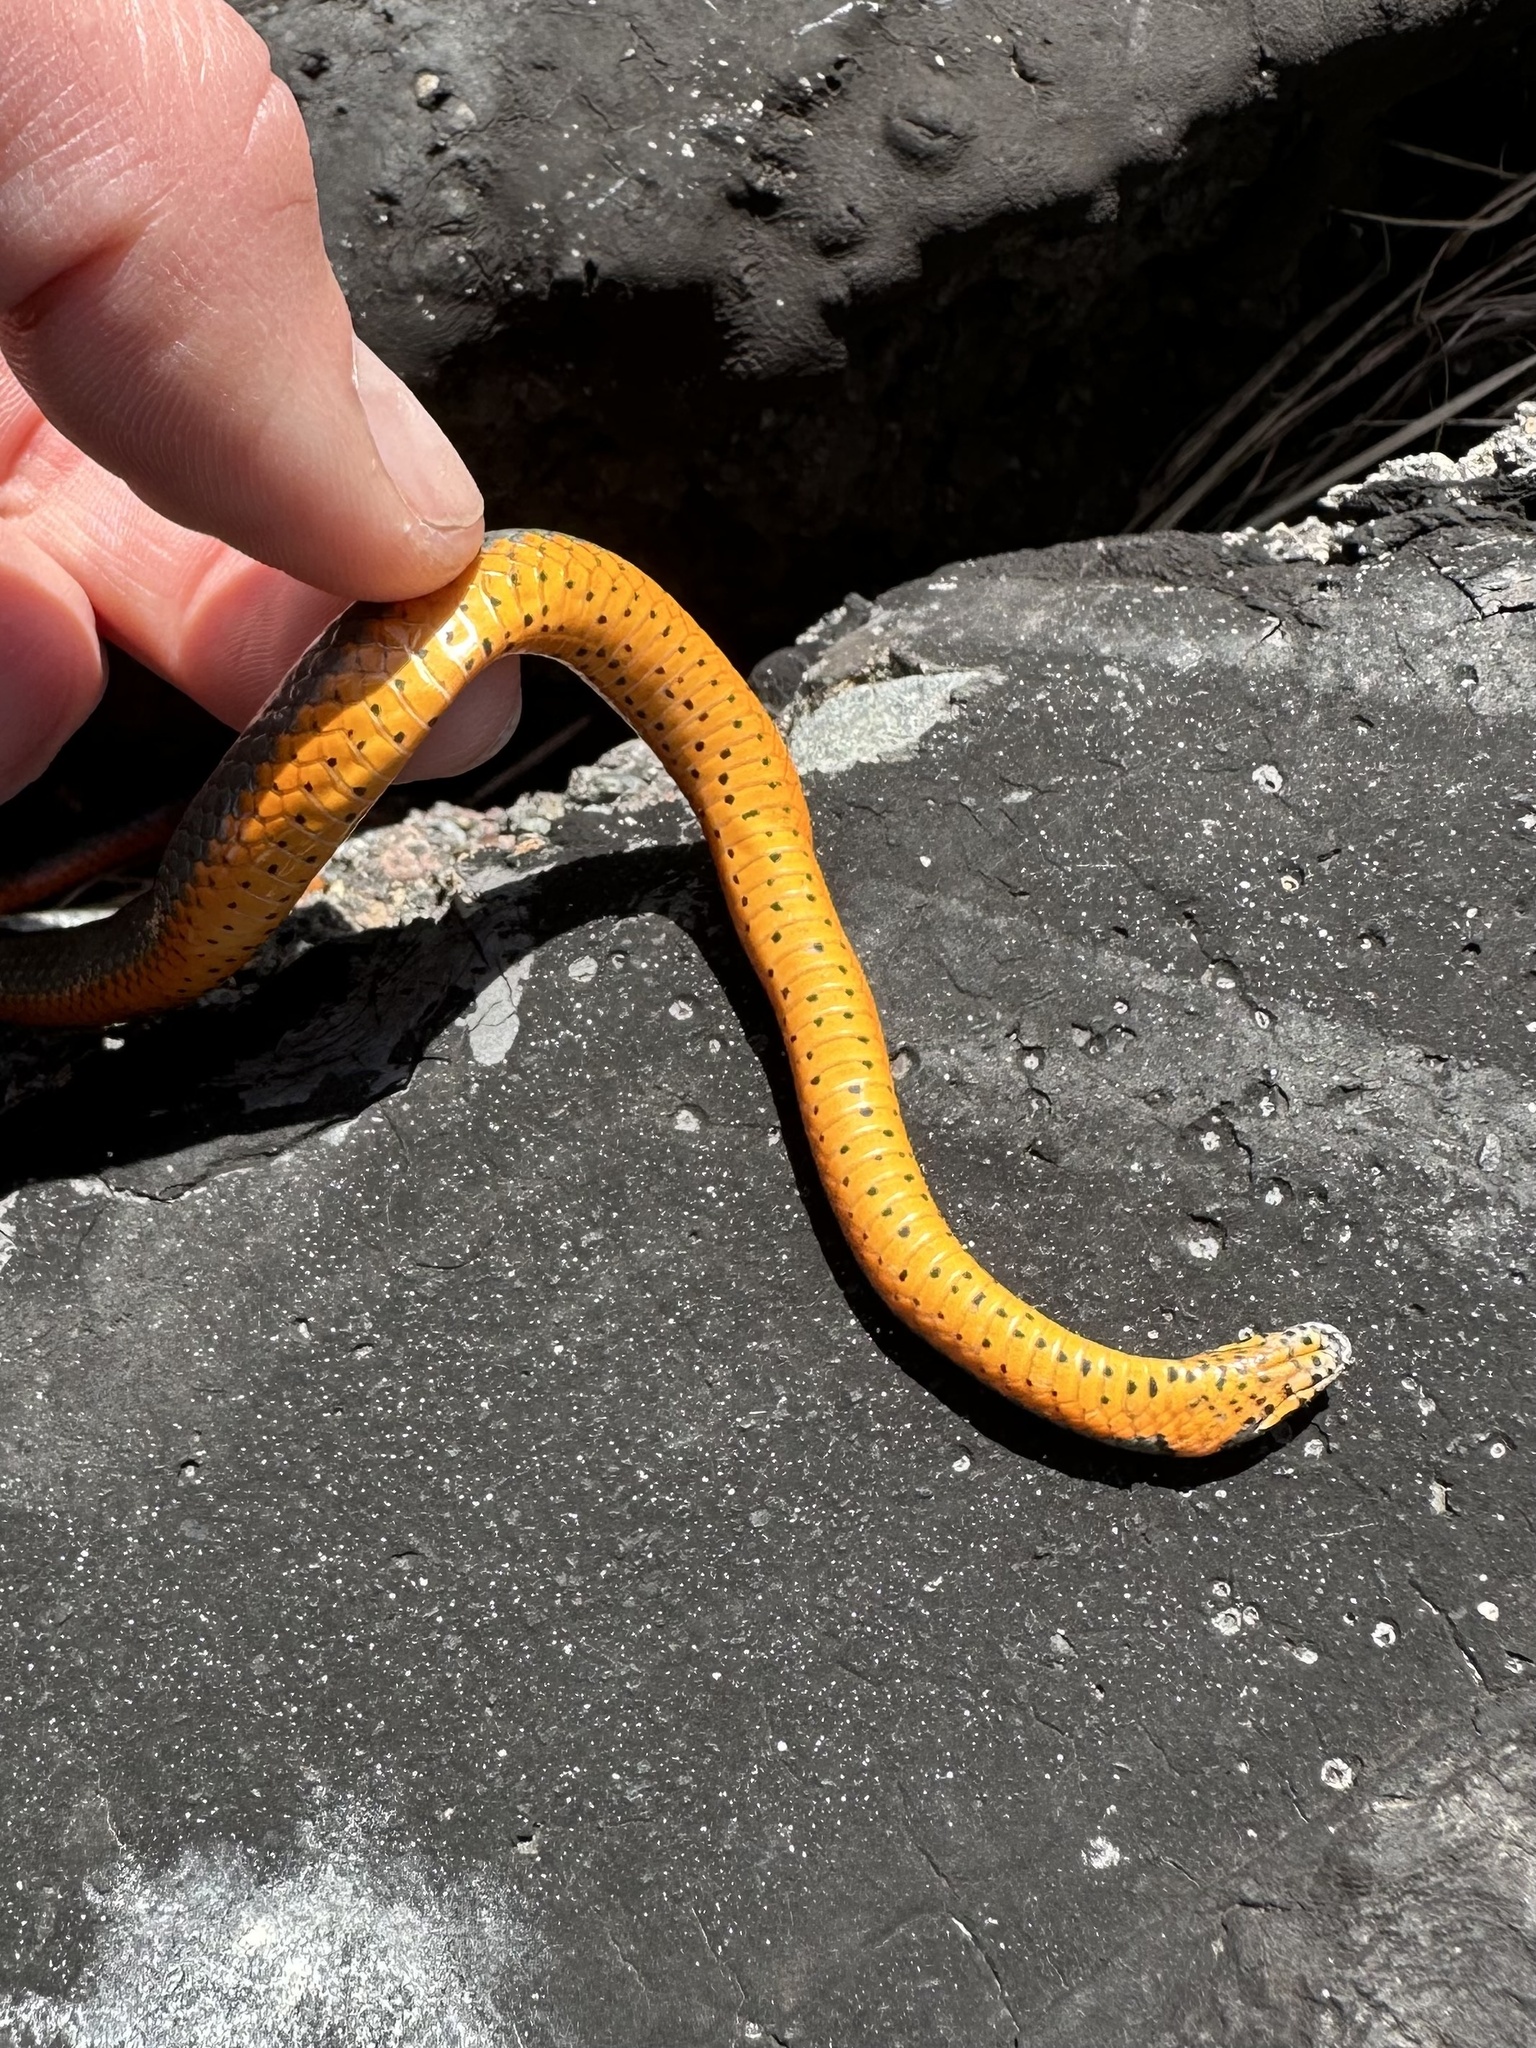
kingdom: Animalia
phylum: Chordata
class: Squamata
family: Colubridae
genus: Diadophis
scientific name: Diadophis punctatus
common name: Ringneck snake
